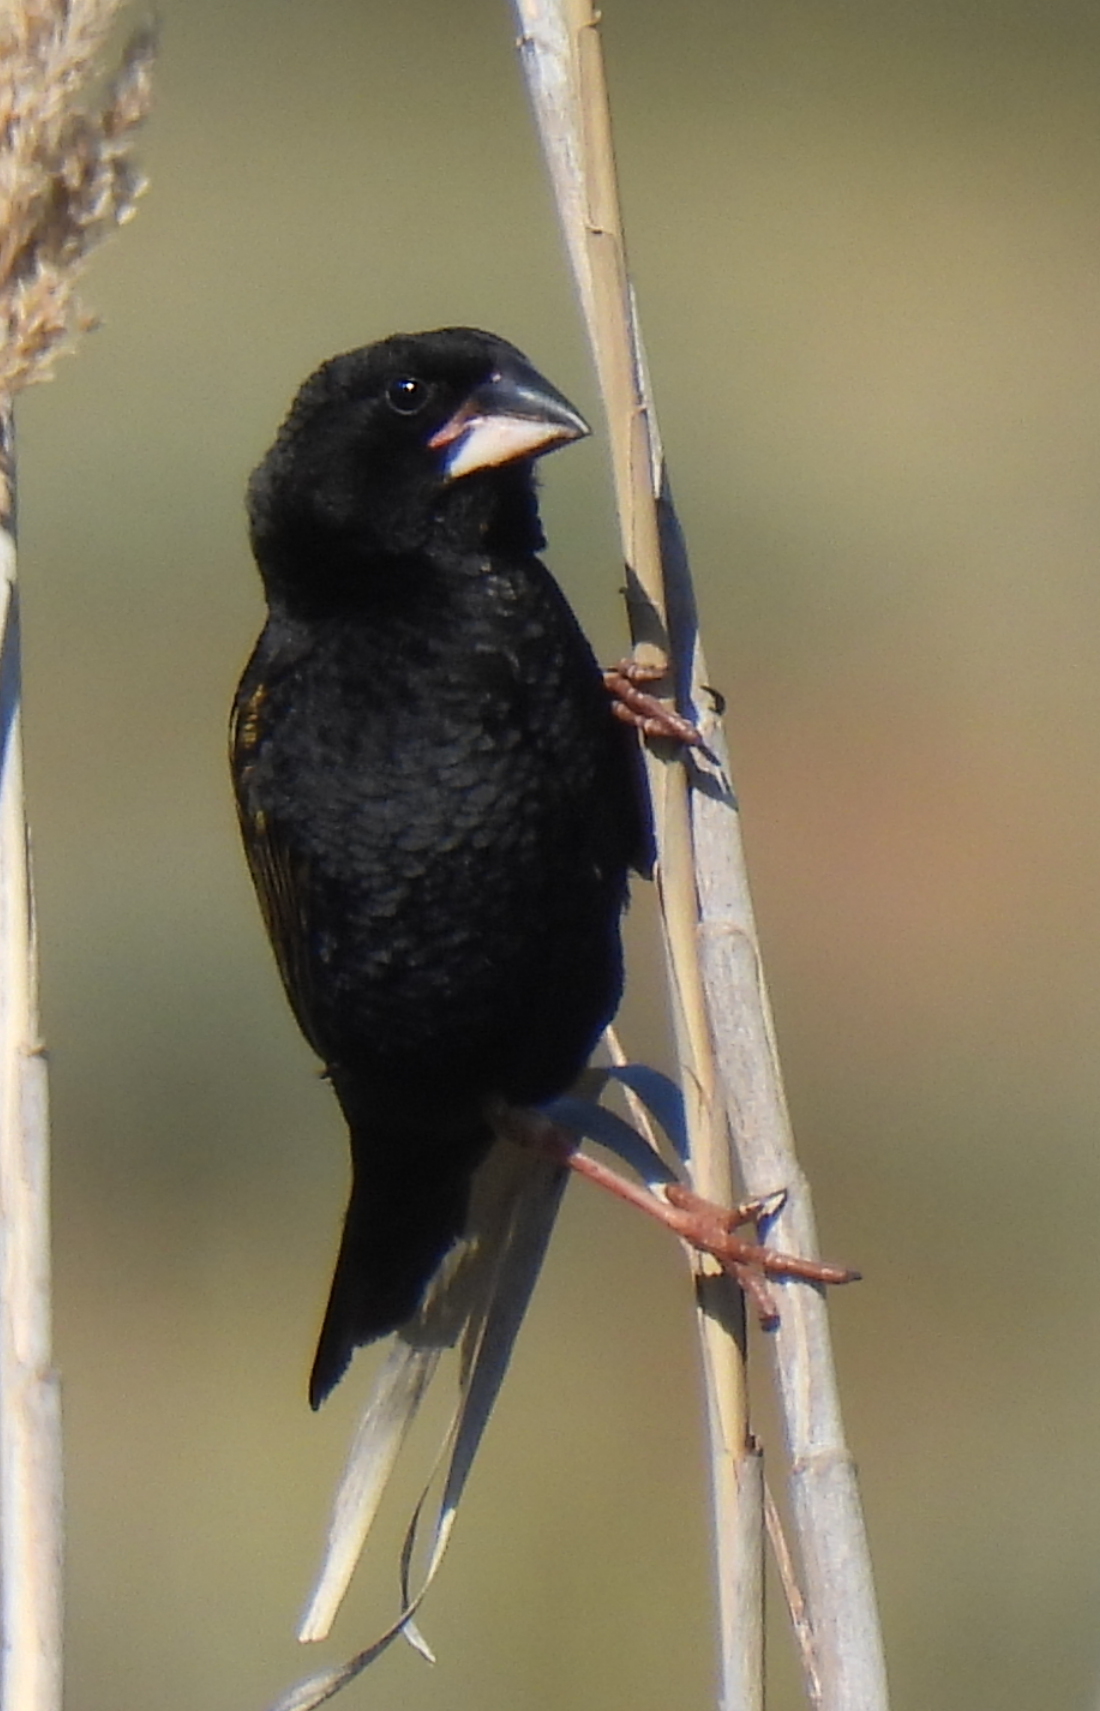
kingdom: Animalia
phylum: Chordata
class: Aves
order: Passeriformes
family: Ploceidae
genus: Euplectes
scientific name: Euplectes capensis
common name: Yellow bishop
